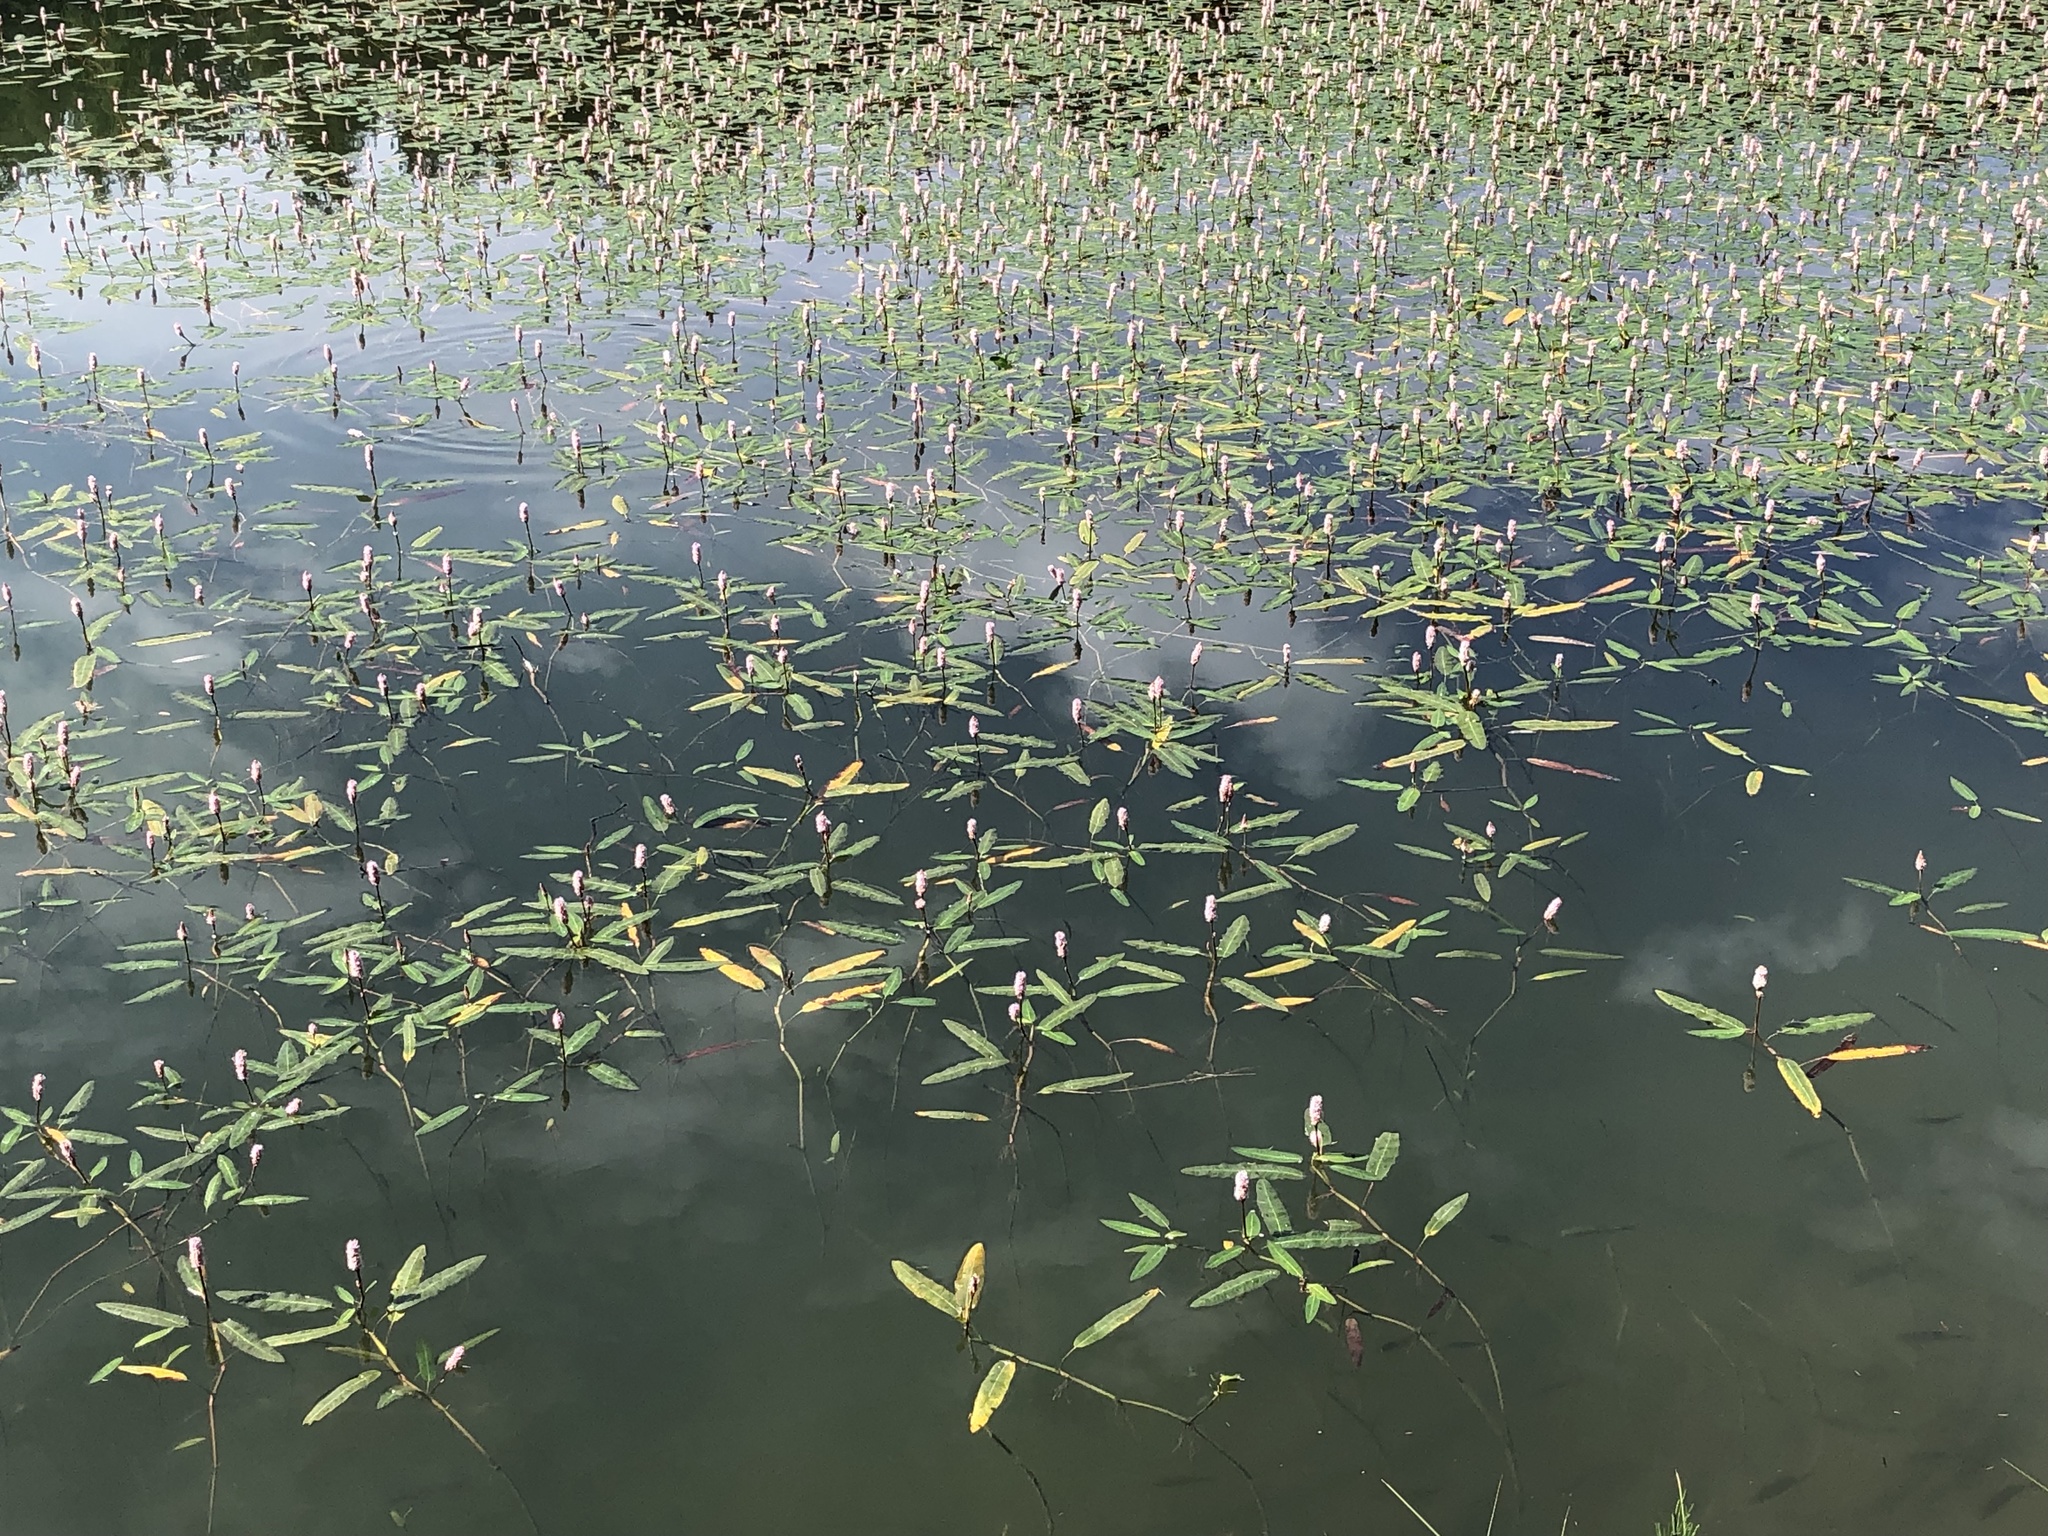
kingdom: Plantae
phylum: Tracheophyta
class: Magnoliopsida
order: Caryophyllales
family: Polygonaceae
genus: Persicaria
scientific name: Persicaria amphibia
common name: Amphibious bistort
